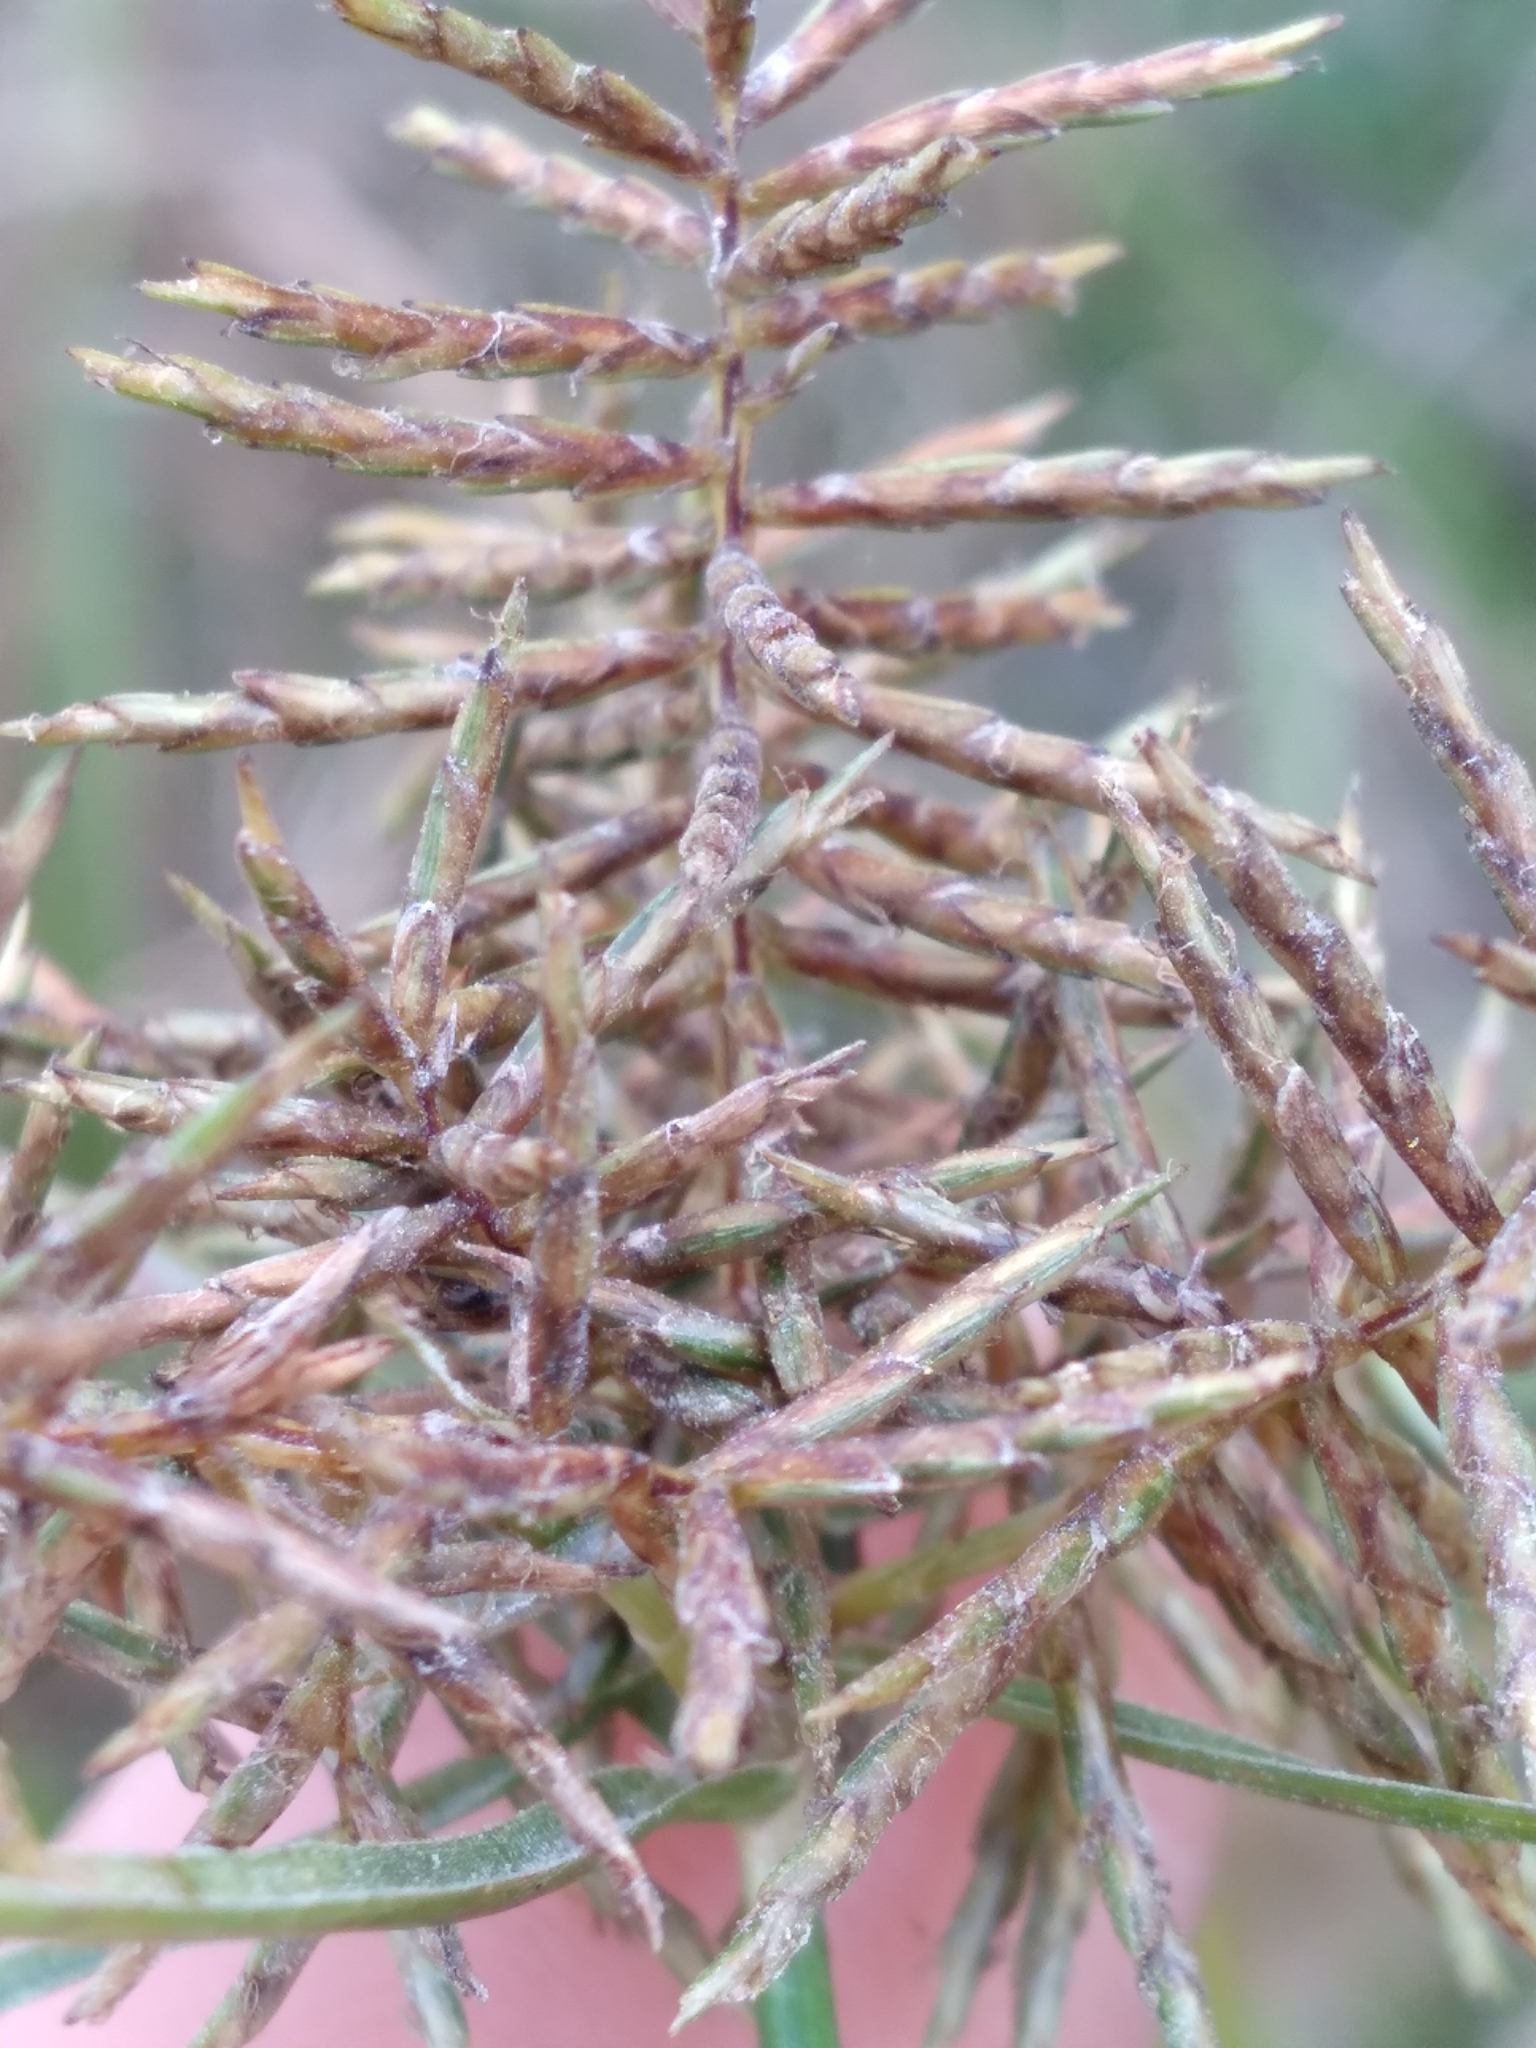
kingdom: Plantae
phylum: Tracheophyta
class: Liliopsida
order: Poales
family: Cyperaceae
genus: Cyperus
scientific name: Cyperus odoratus
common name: Fragrant flatsedge
